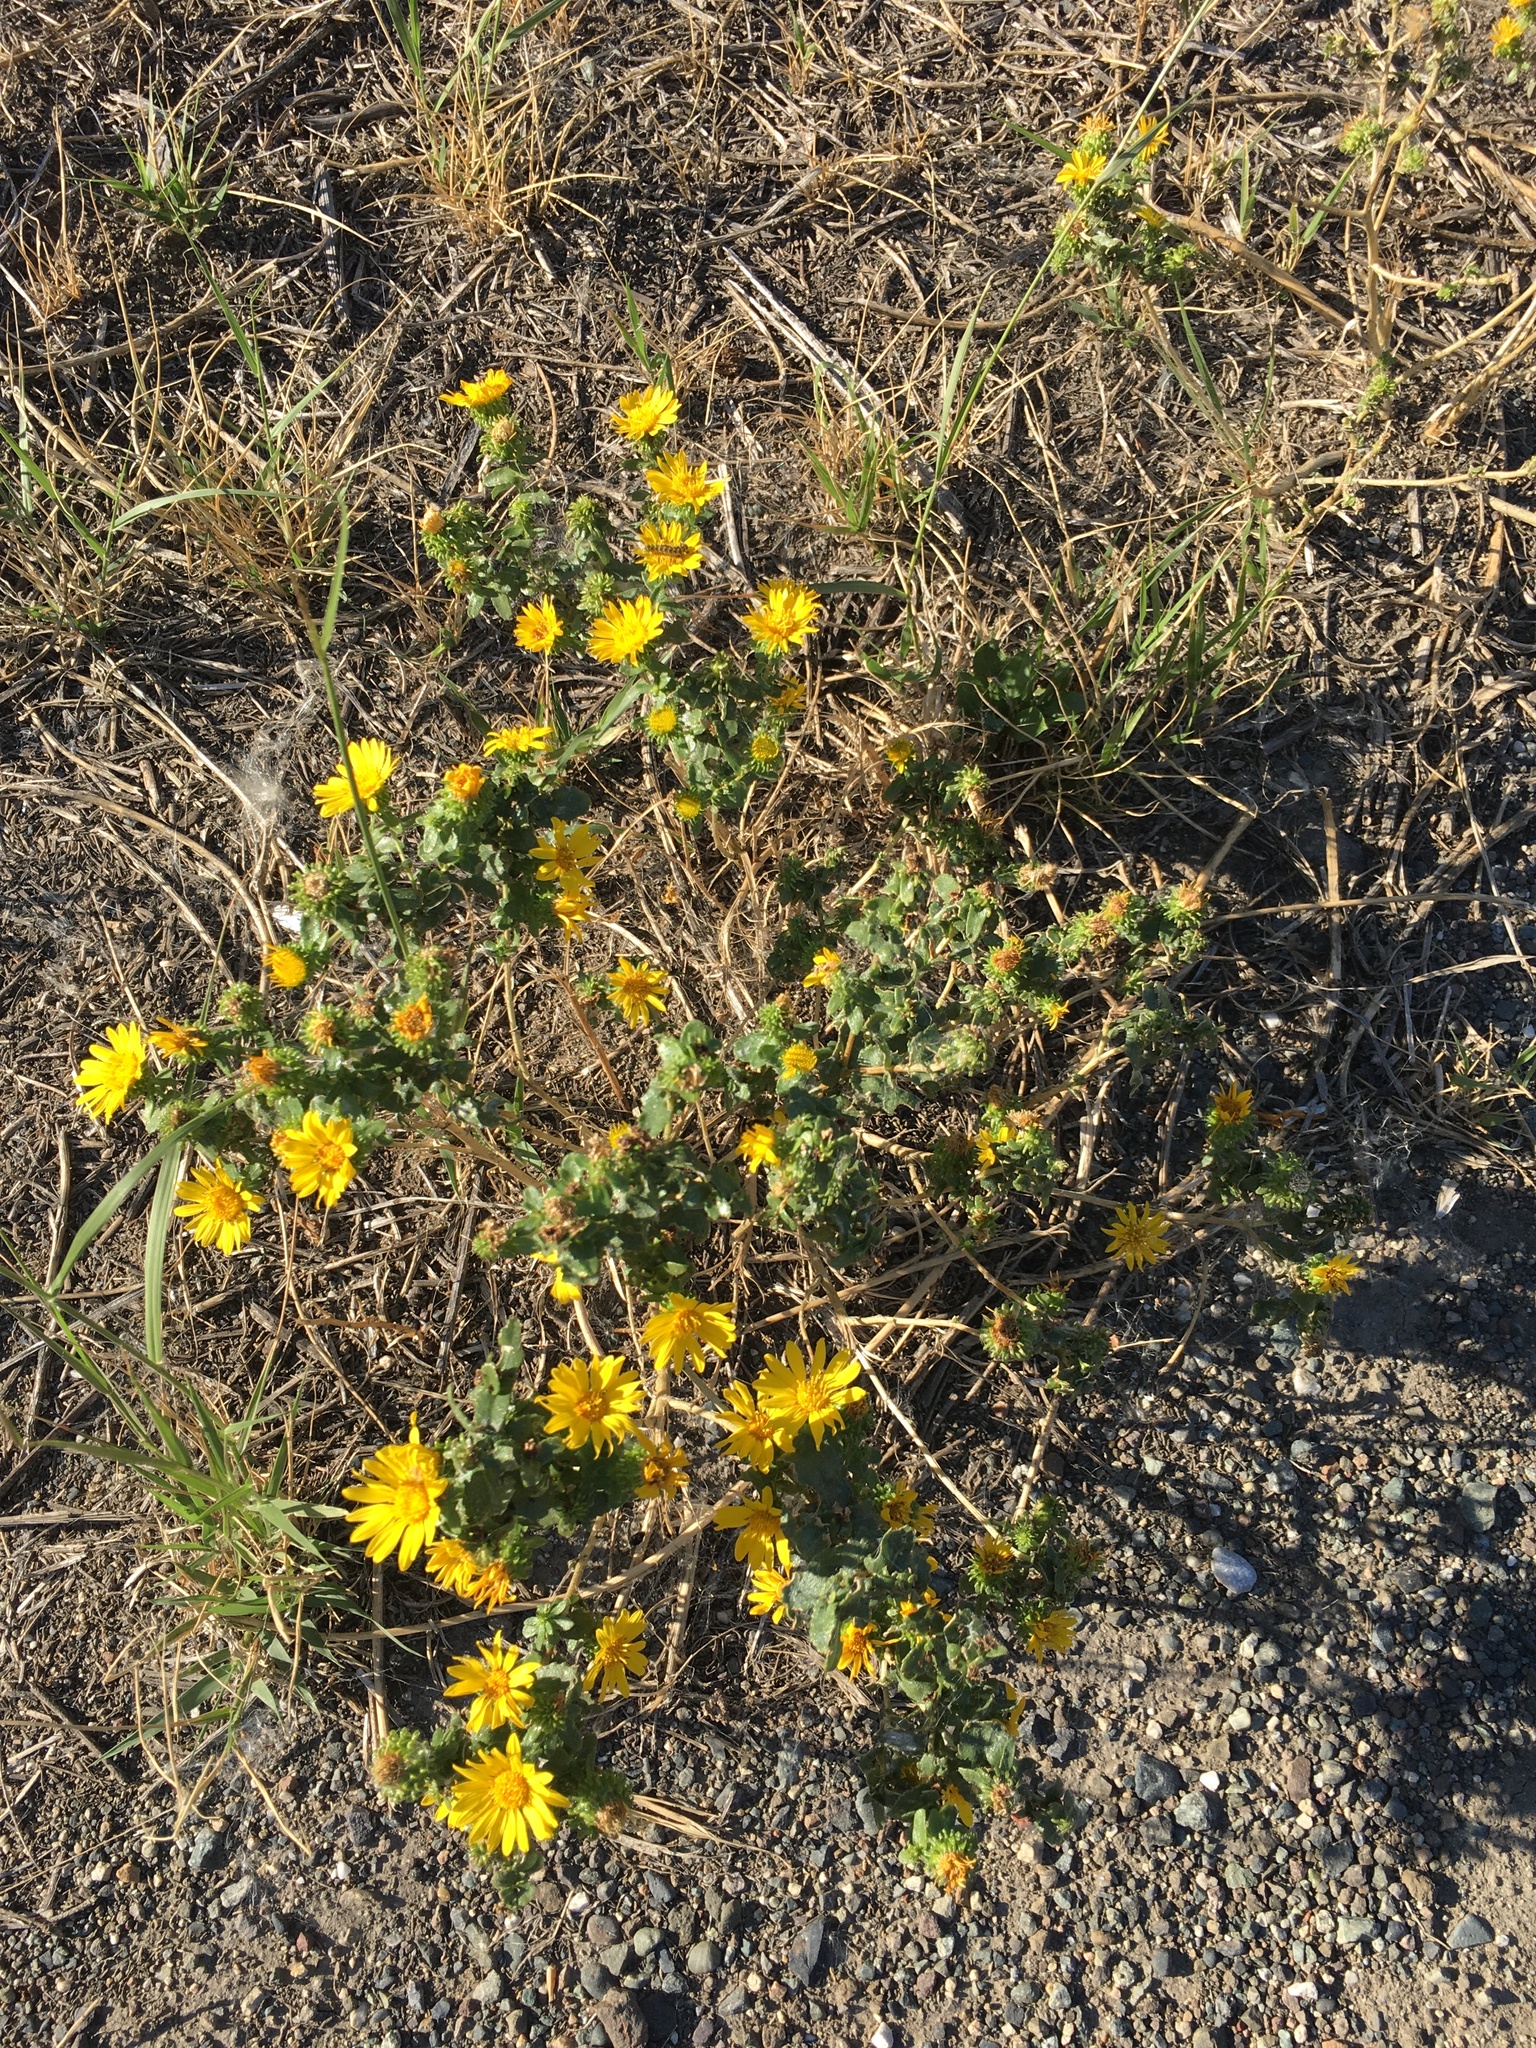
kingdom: Plantae
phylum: Tracheophyta
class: Magnoliopsida
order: Asterales
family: Asteraceae
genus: Grindelia
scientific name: Grindelia squarrosa
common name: Curly-cup gumweed
